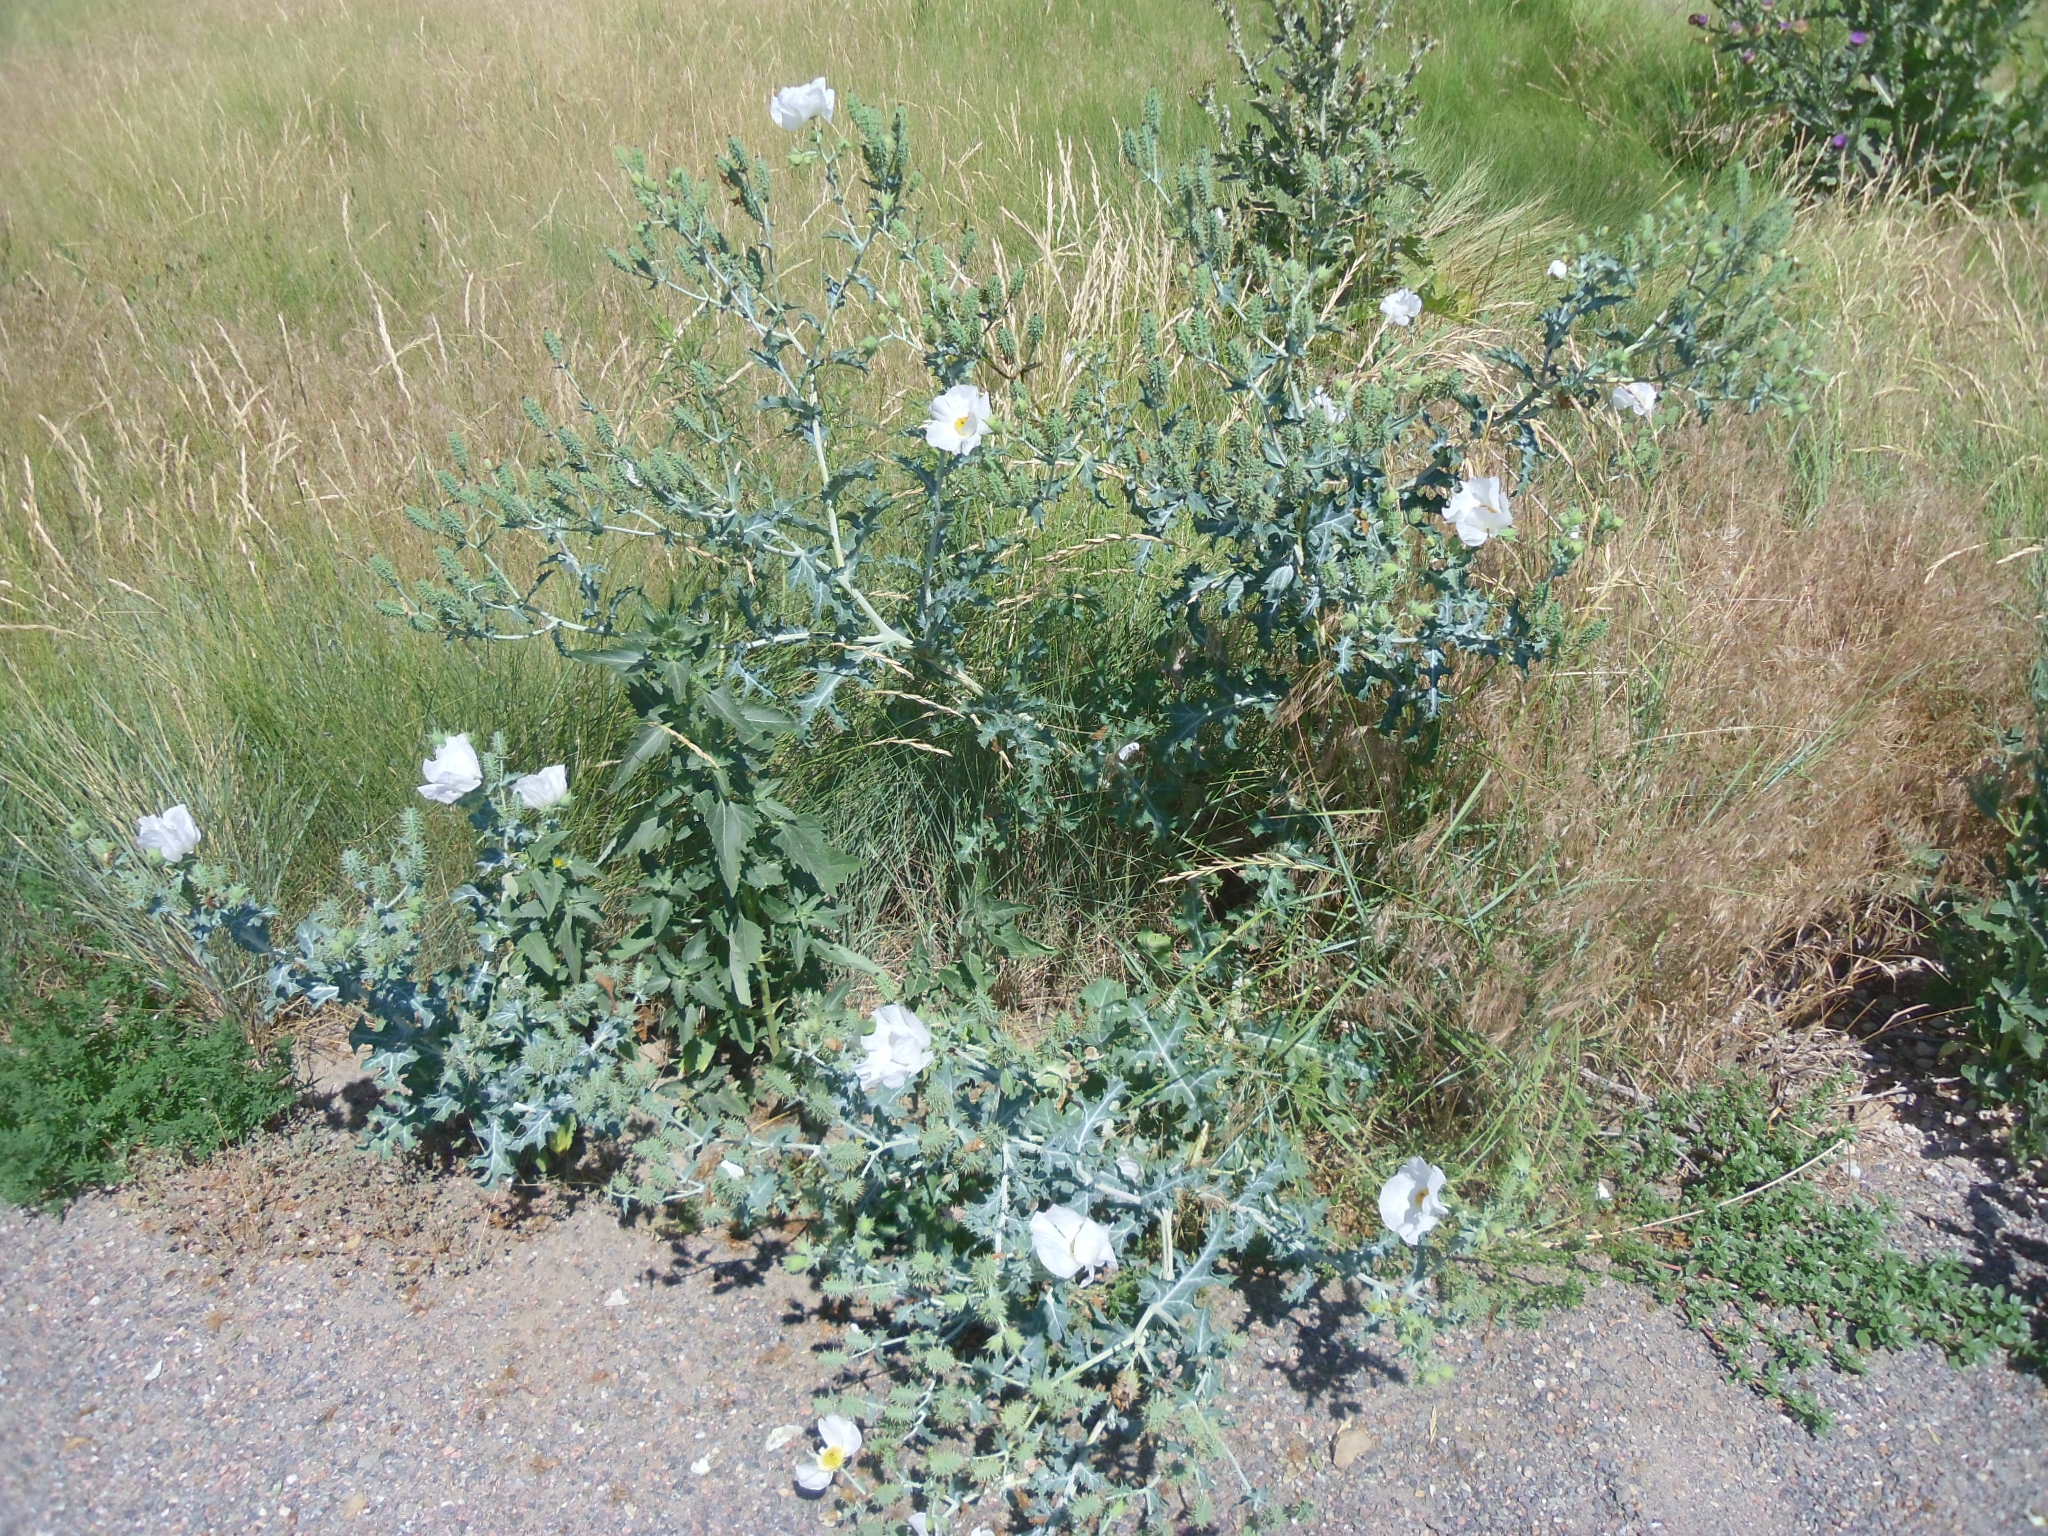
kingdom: Plantae
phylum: Tracheophyta
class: Magnoliopsida
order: Ranunculales
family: Papaveraceae
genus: Argemone
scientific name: Argemone polyanthemos
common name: Plains prickly-poppy
